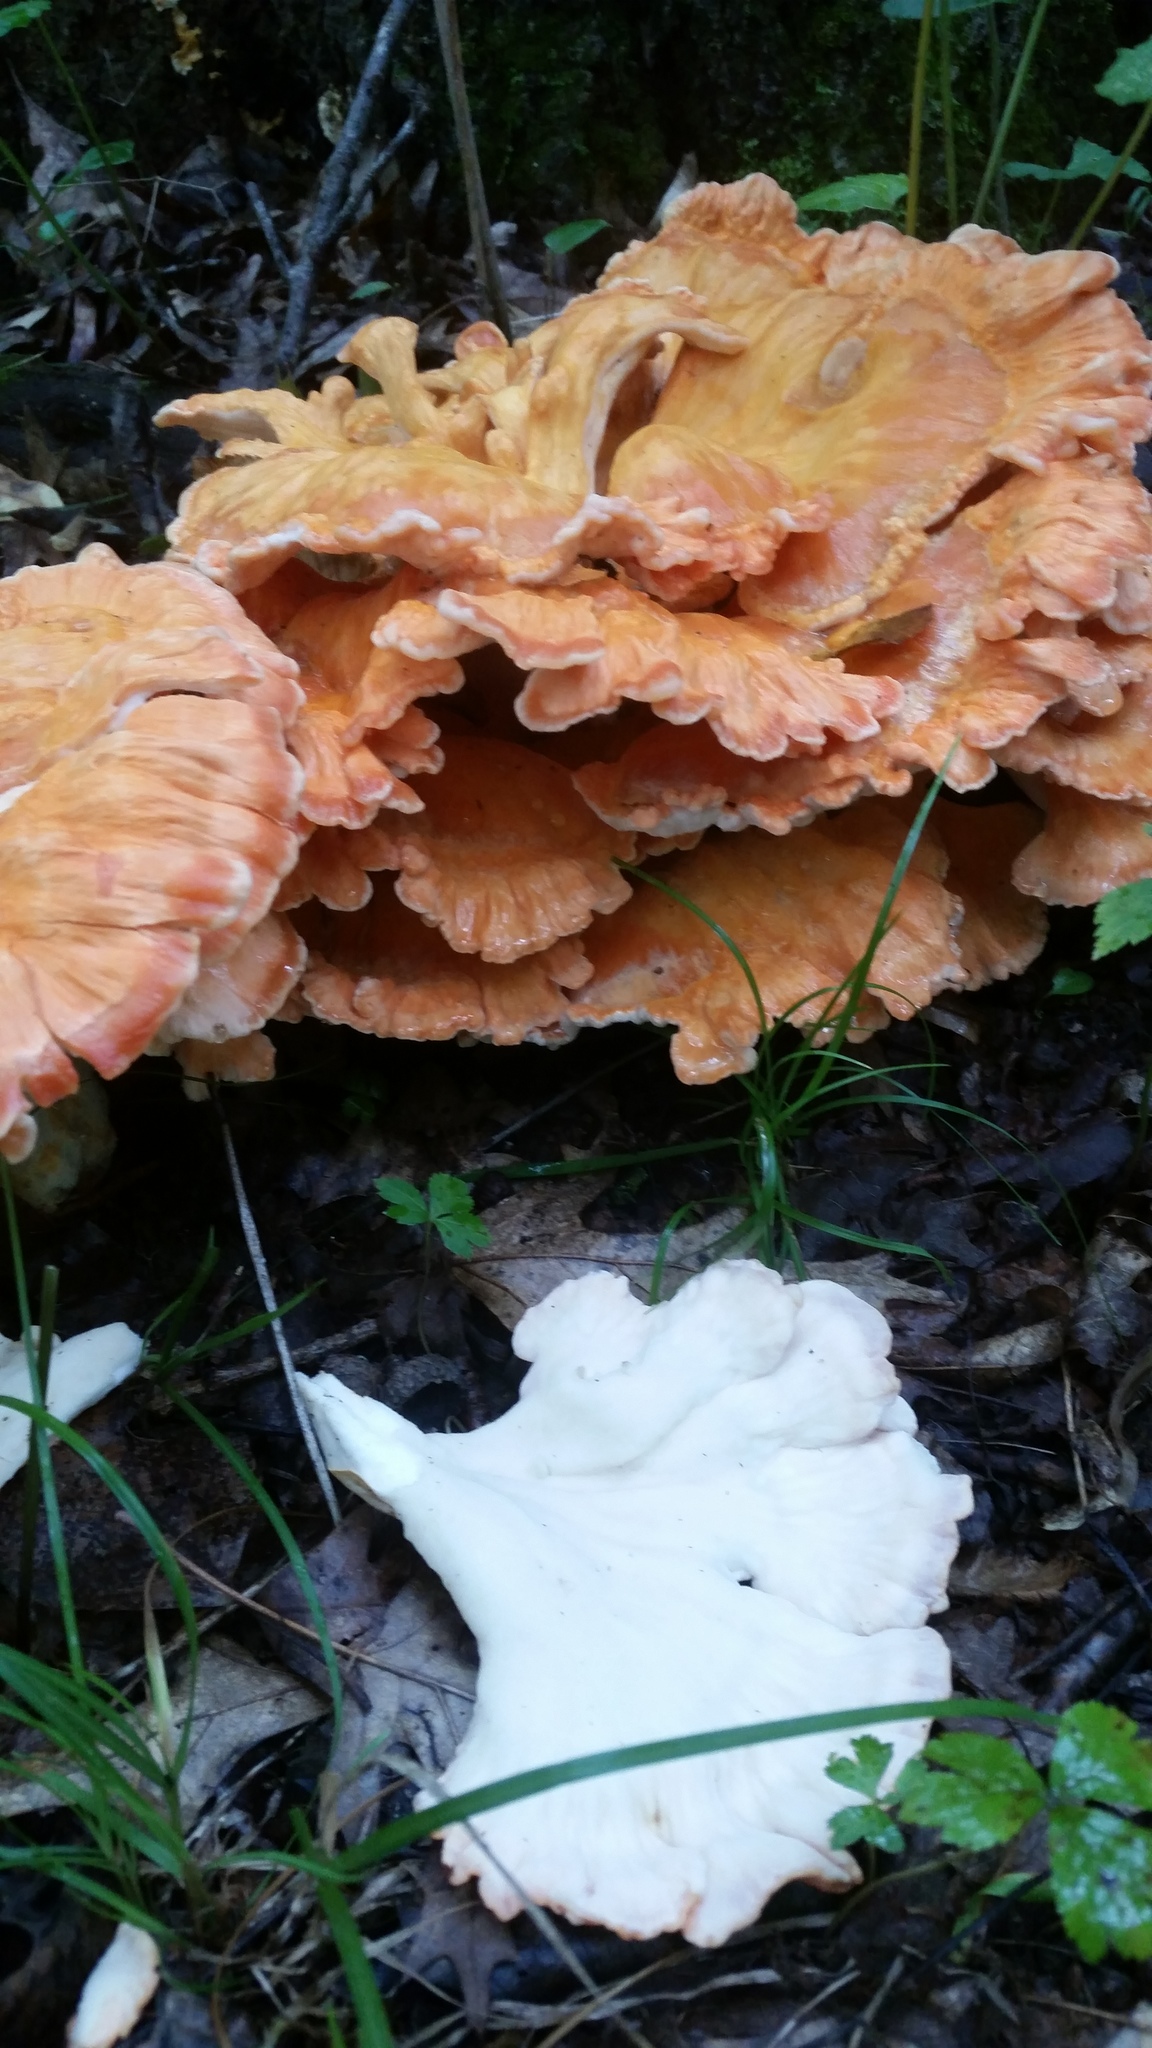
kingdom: Fungi
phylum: Basidiomycota
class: Agaricomycetes
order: Polyporales
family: Laetiporaceae
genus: Laetiporus
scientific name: Laetiporus sulphureus
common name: Chicken of the woods
